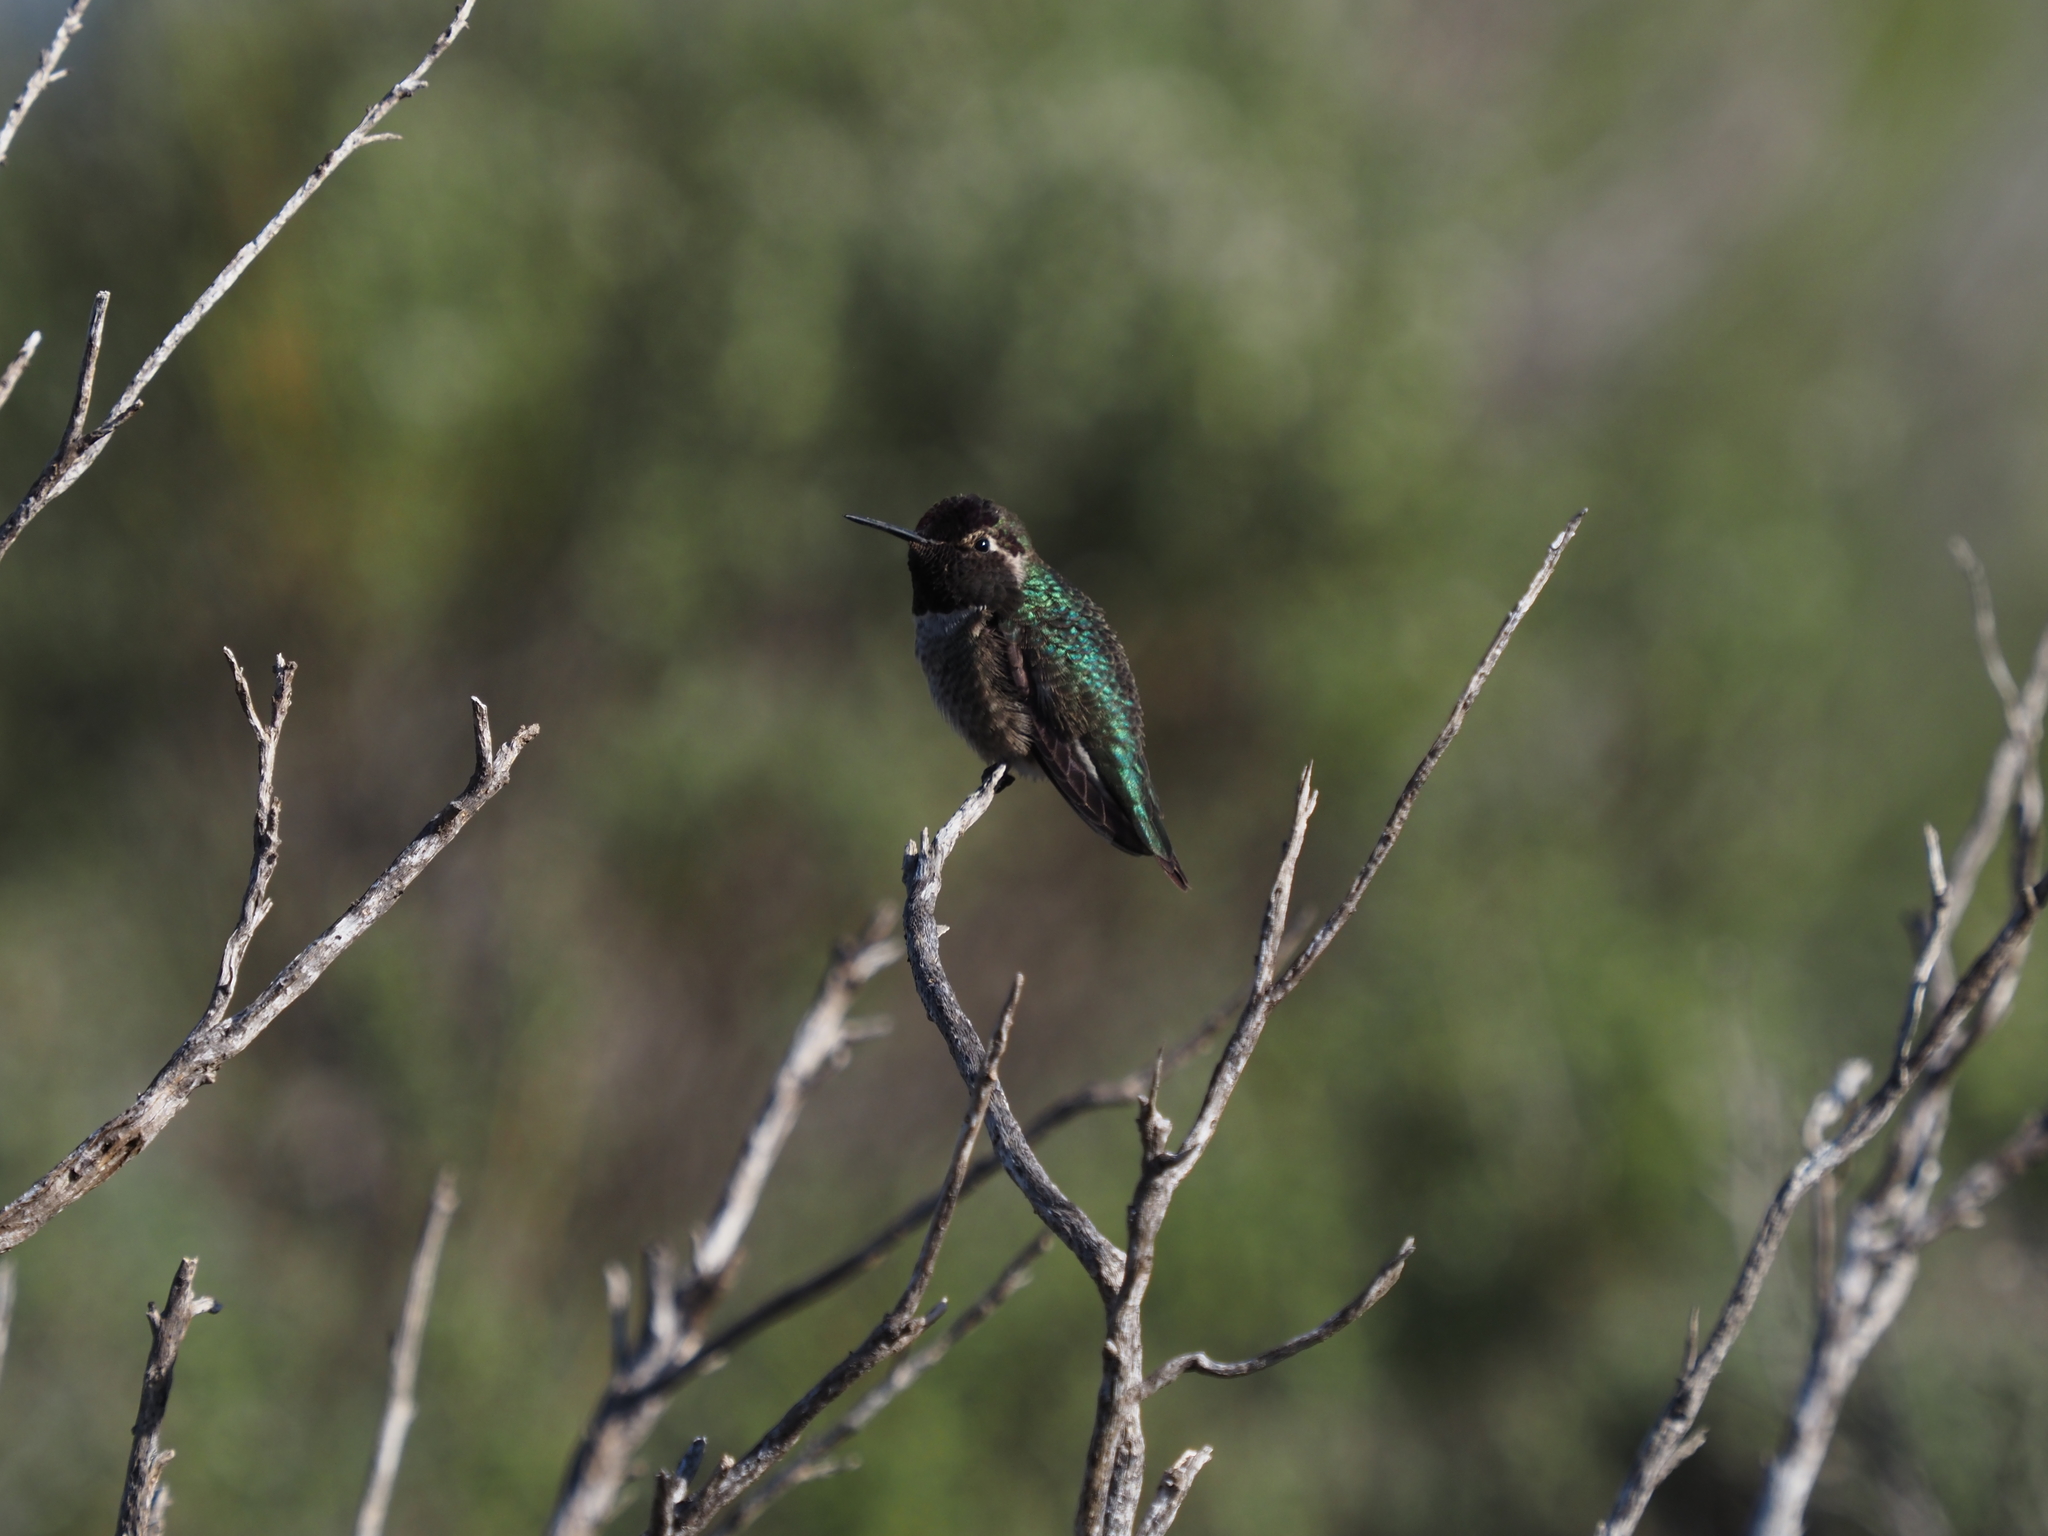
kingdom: Animalia
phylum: Chordata
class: Aves
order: Apodiformes
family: Trochilidae
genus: Calypte
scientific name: Calypte anna
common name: Anna's hummingbird
